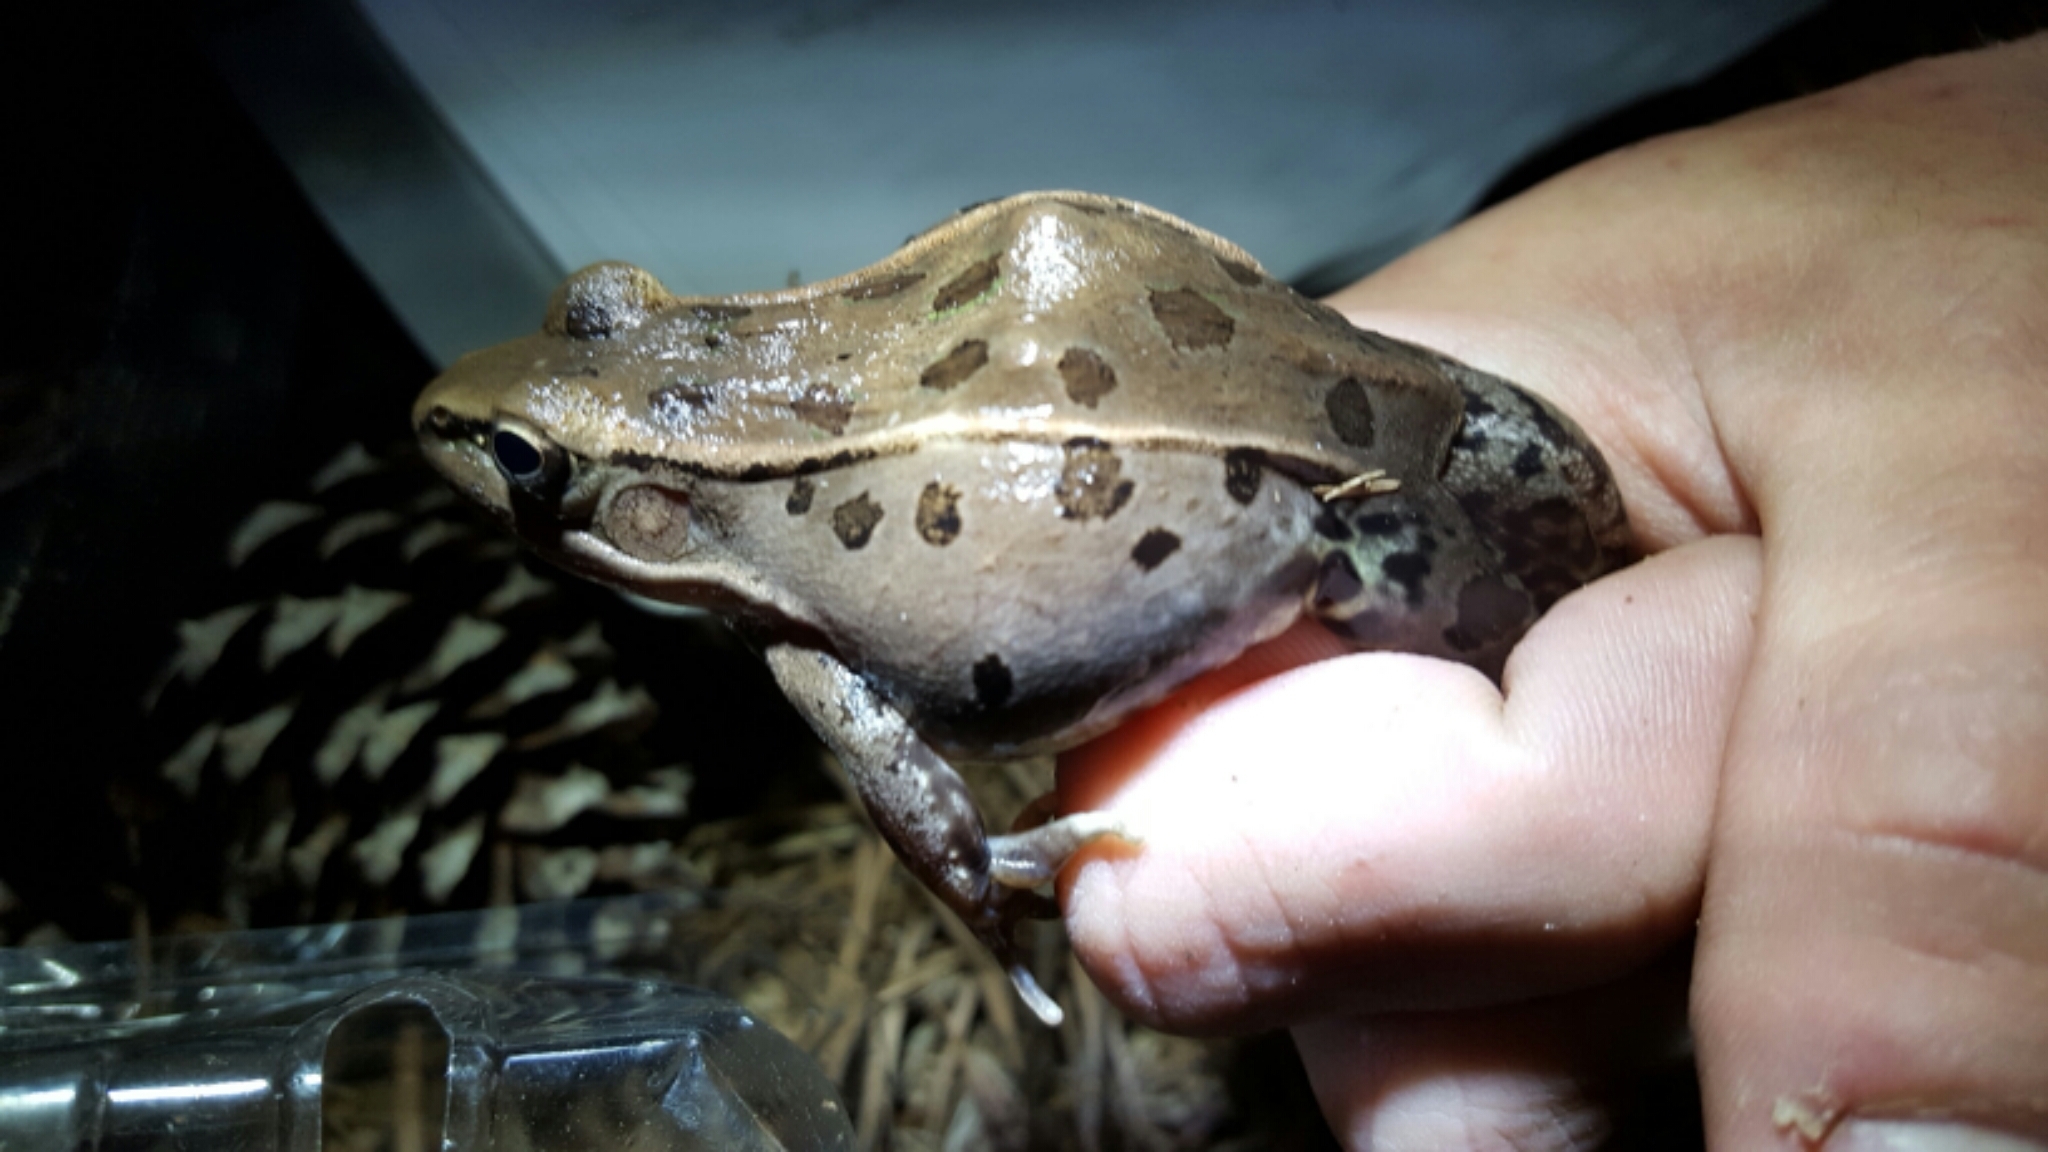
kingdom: Animalia
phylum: Chordata
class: Amphibia
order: Anura
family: Ranidae
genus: Lithobates
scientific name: Lithobates sphenocephalus
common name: Southern leopard frog
